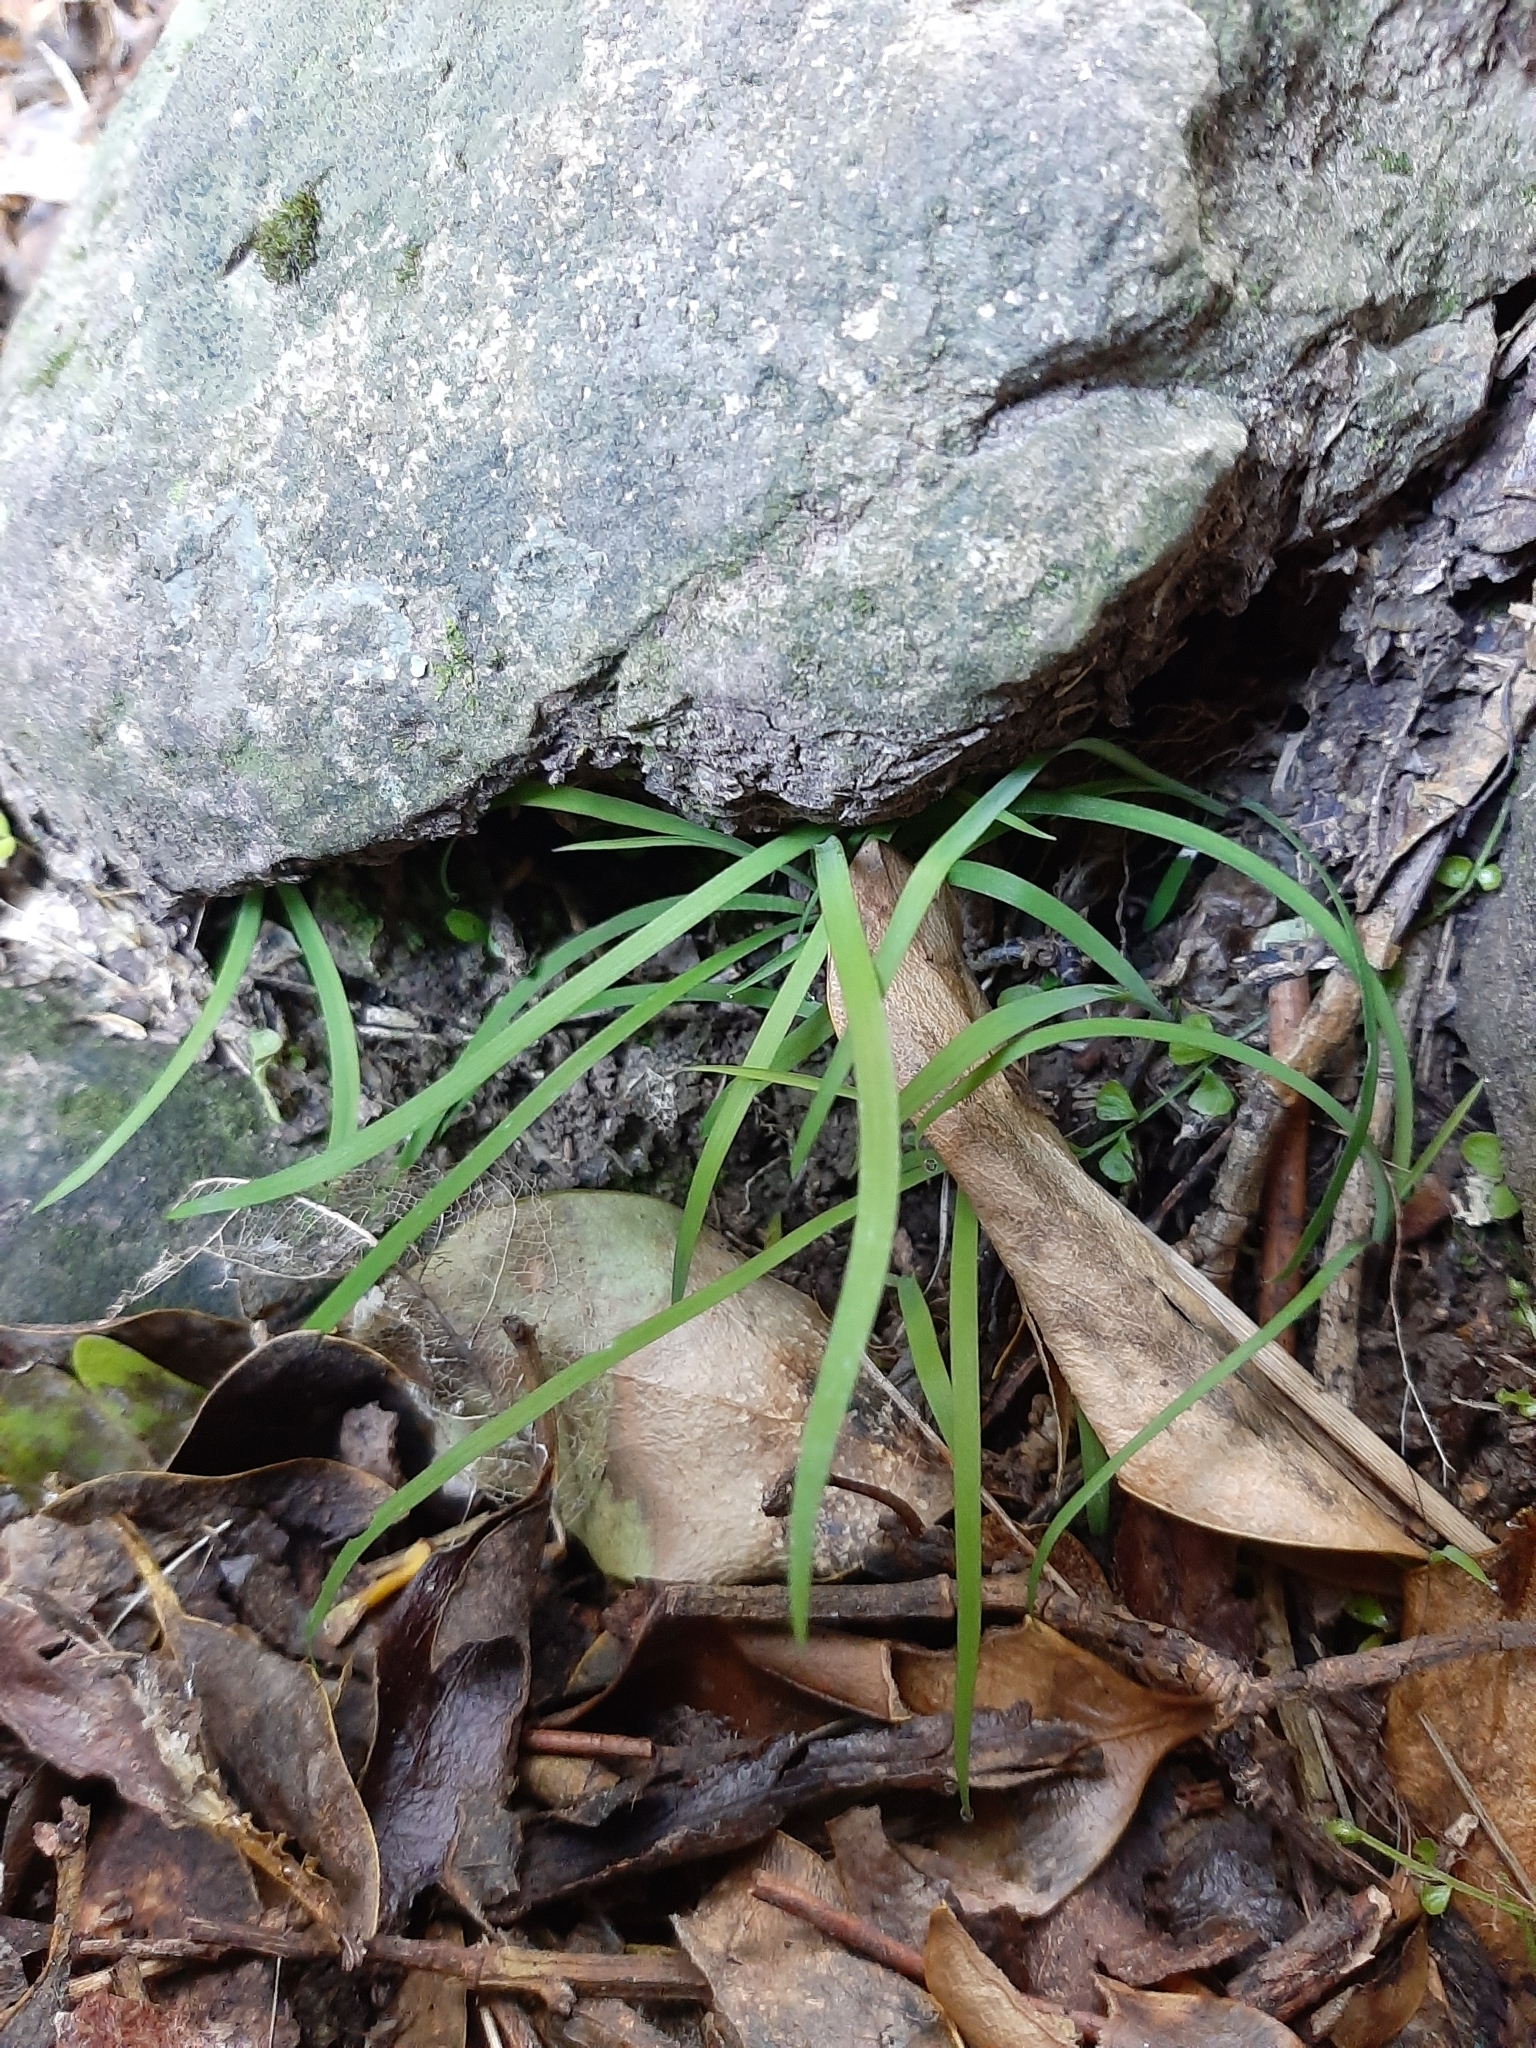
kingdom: Plantae
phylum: Tracheophyta
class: Liliopsida
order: Asparagales
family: Asparagaceae
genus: Arthropodium
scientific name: Arthropodium candidum
